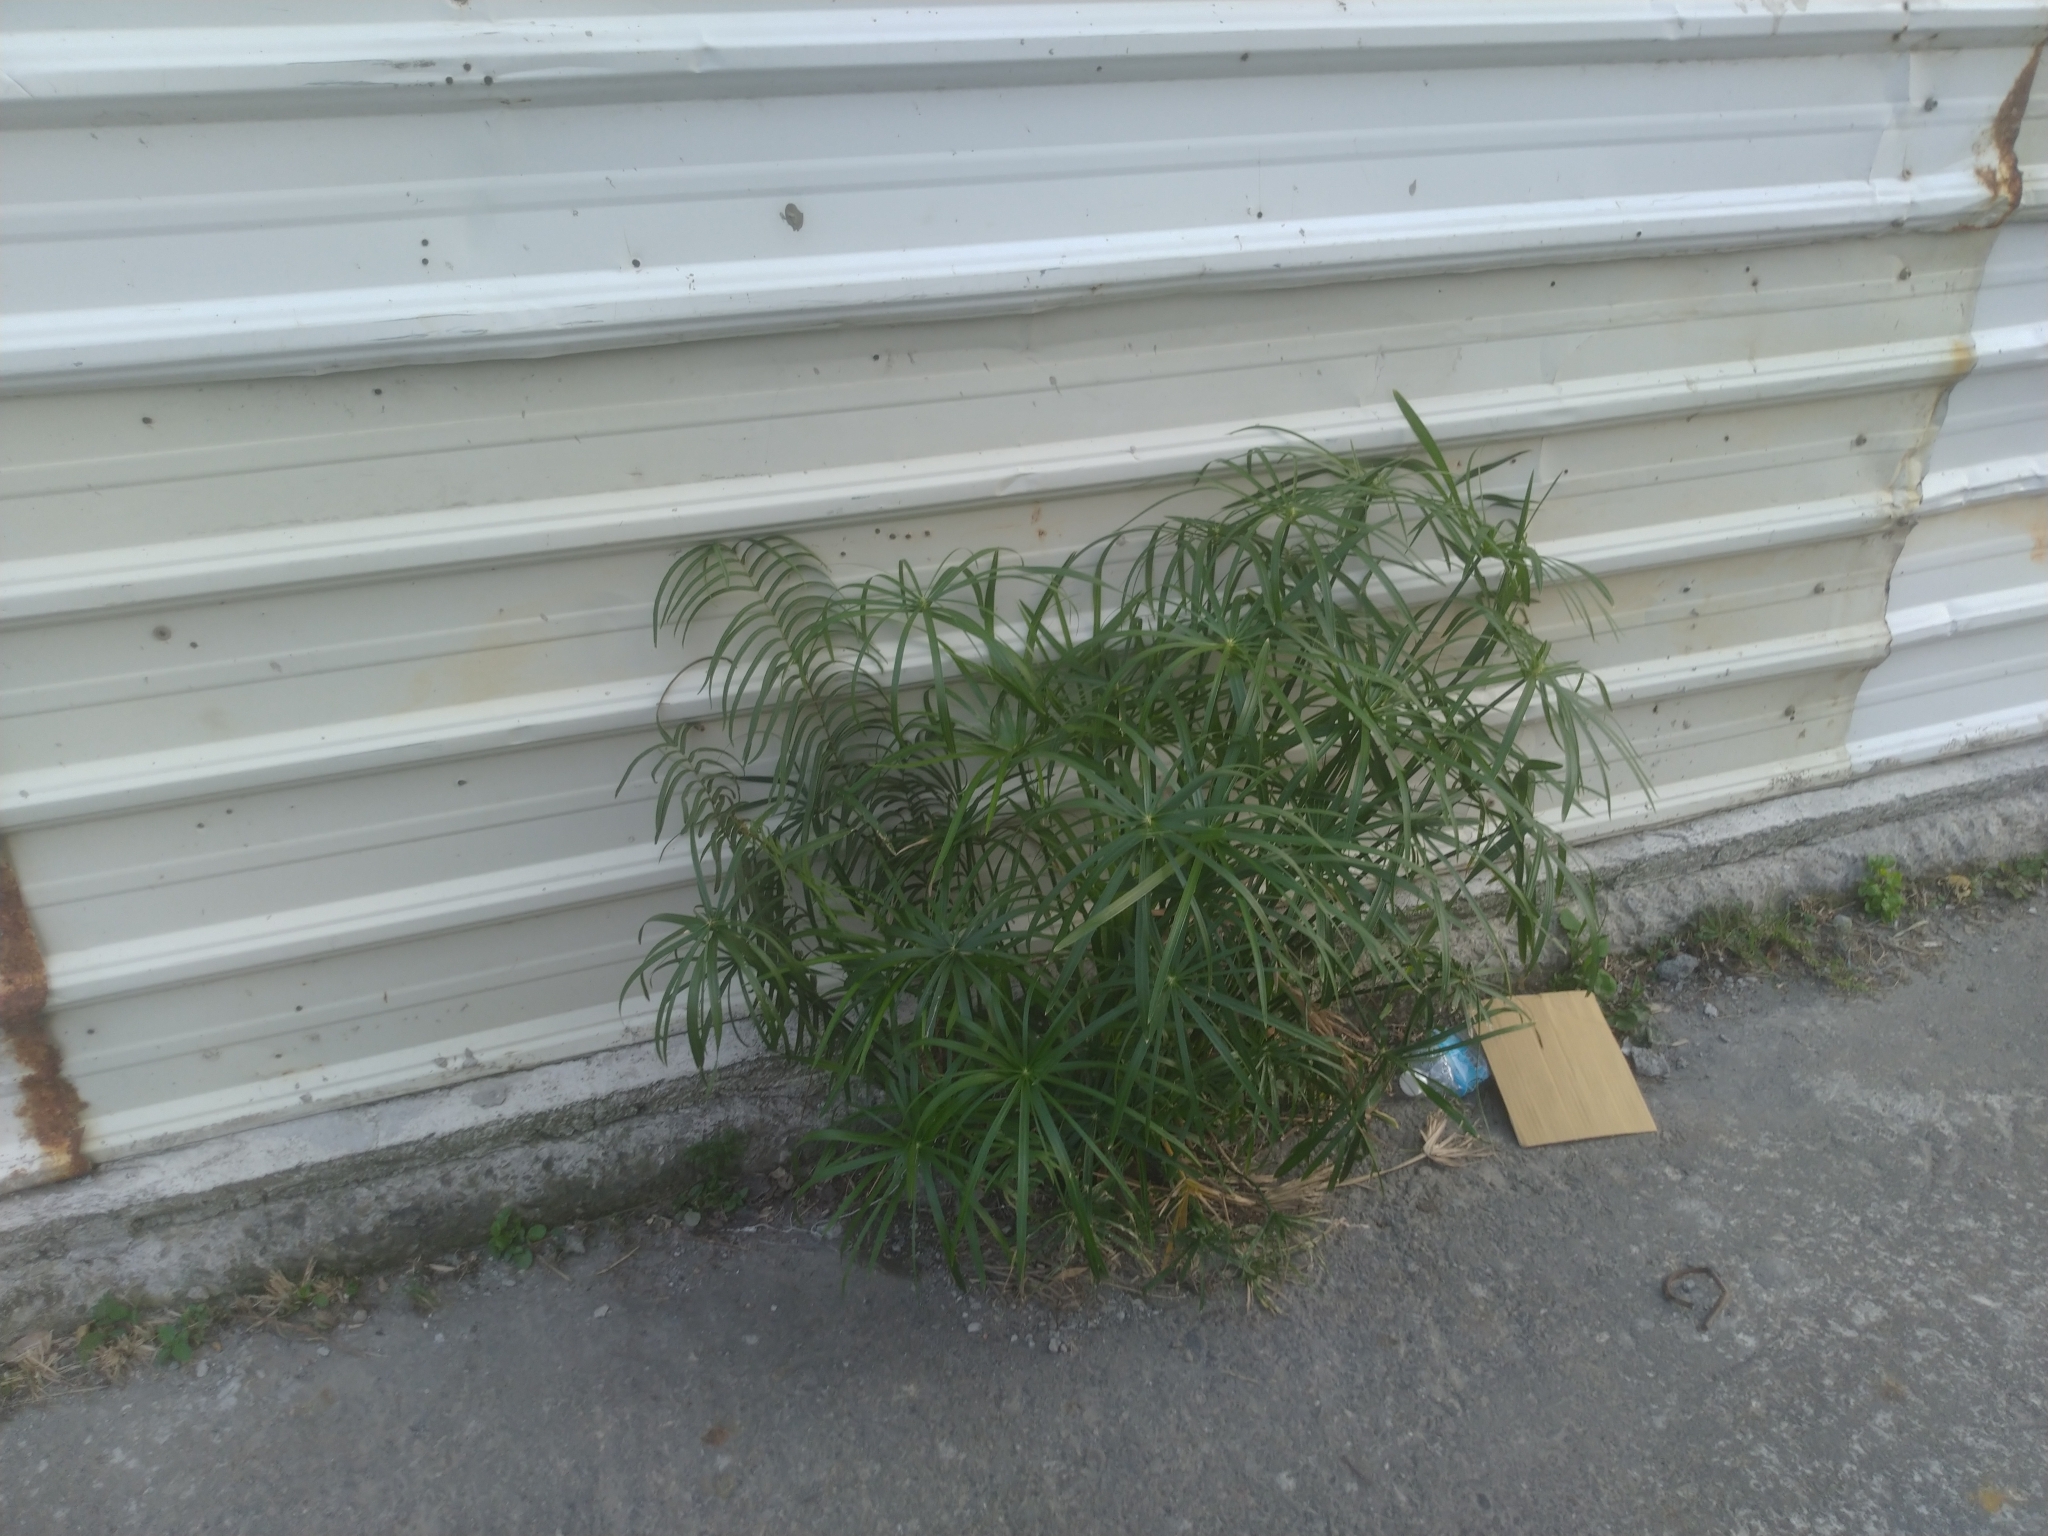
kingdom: Plantae
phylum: Tracheophyta
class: Liliopsida
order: Poales
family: Cyperaceae
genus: Cyperus
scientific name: Cyperus alternifolius
